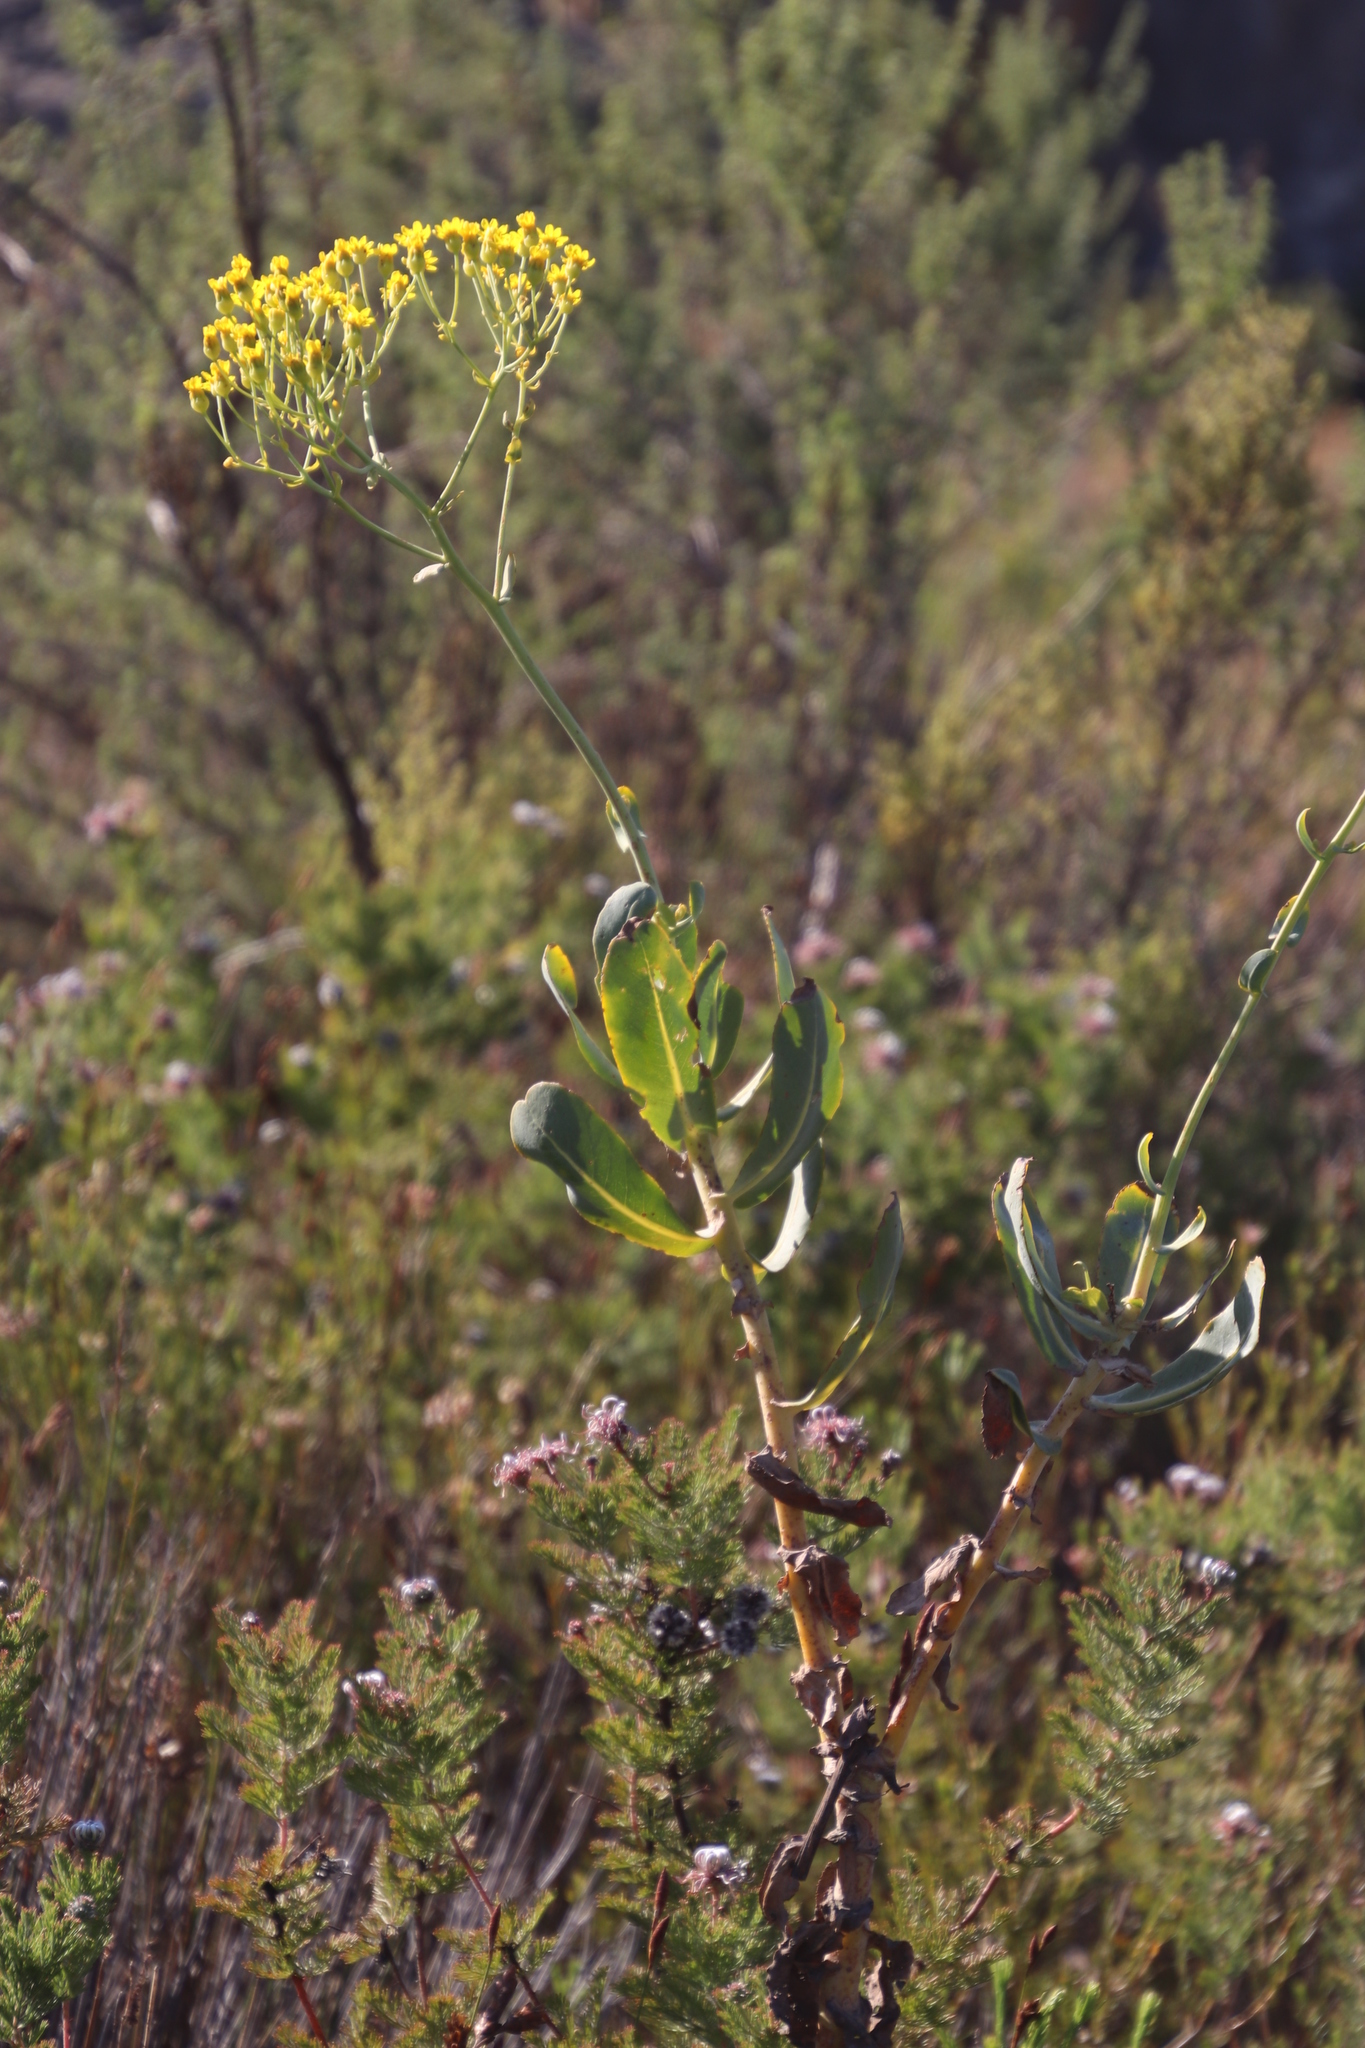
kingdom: Plantae
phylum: Tracheophyta
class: Magnoliopsida
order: Asterales
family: Asteraceae
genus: Othonna
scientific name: Othonna parviflora
